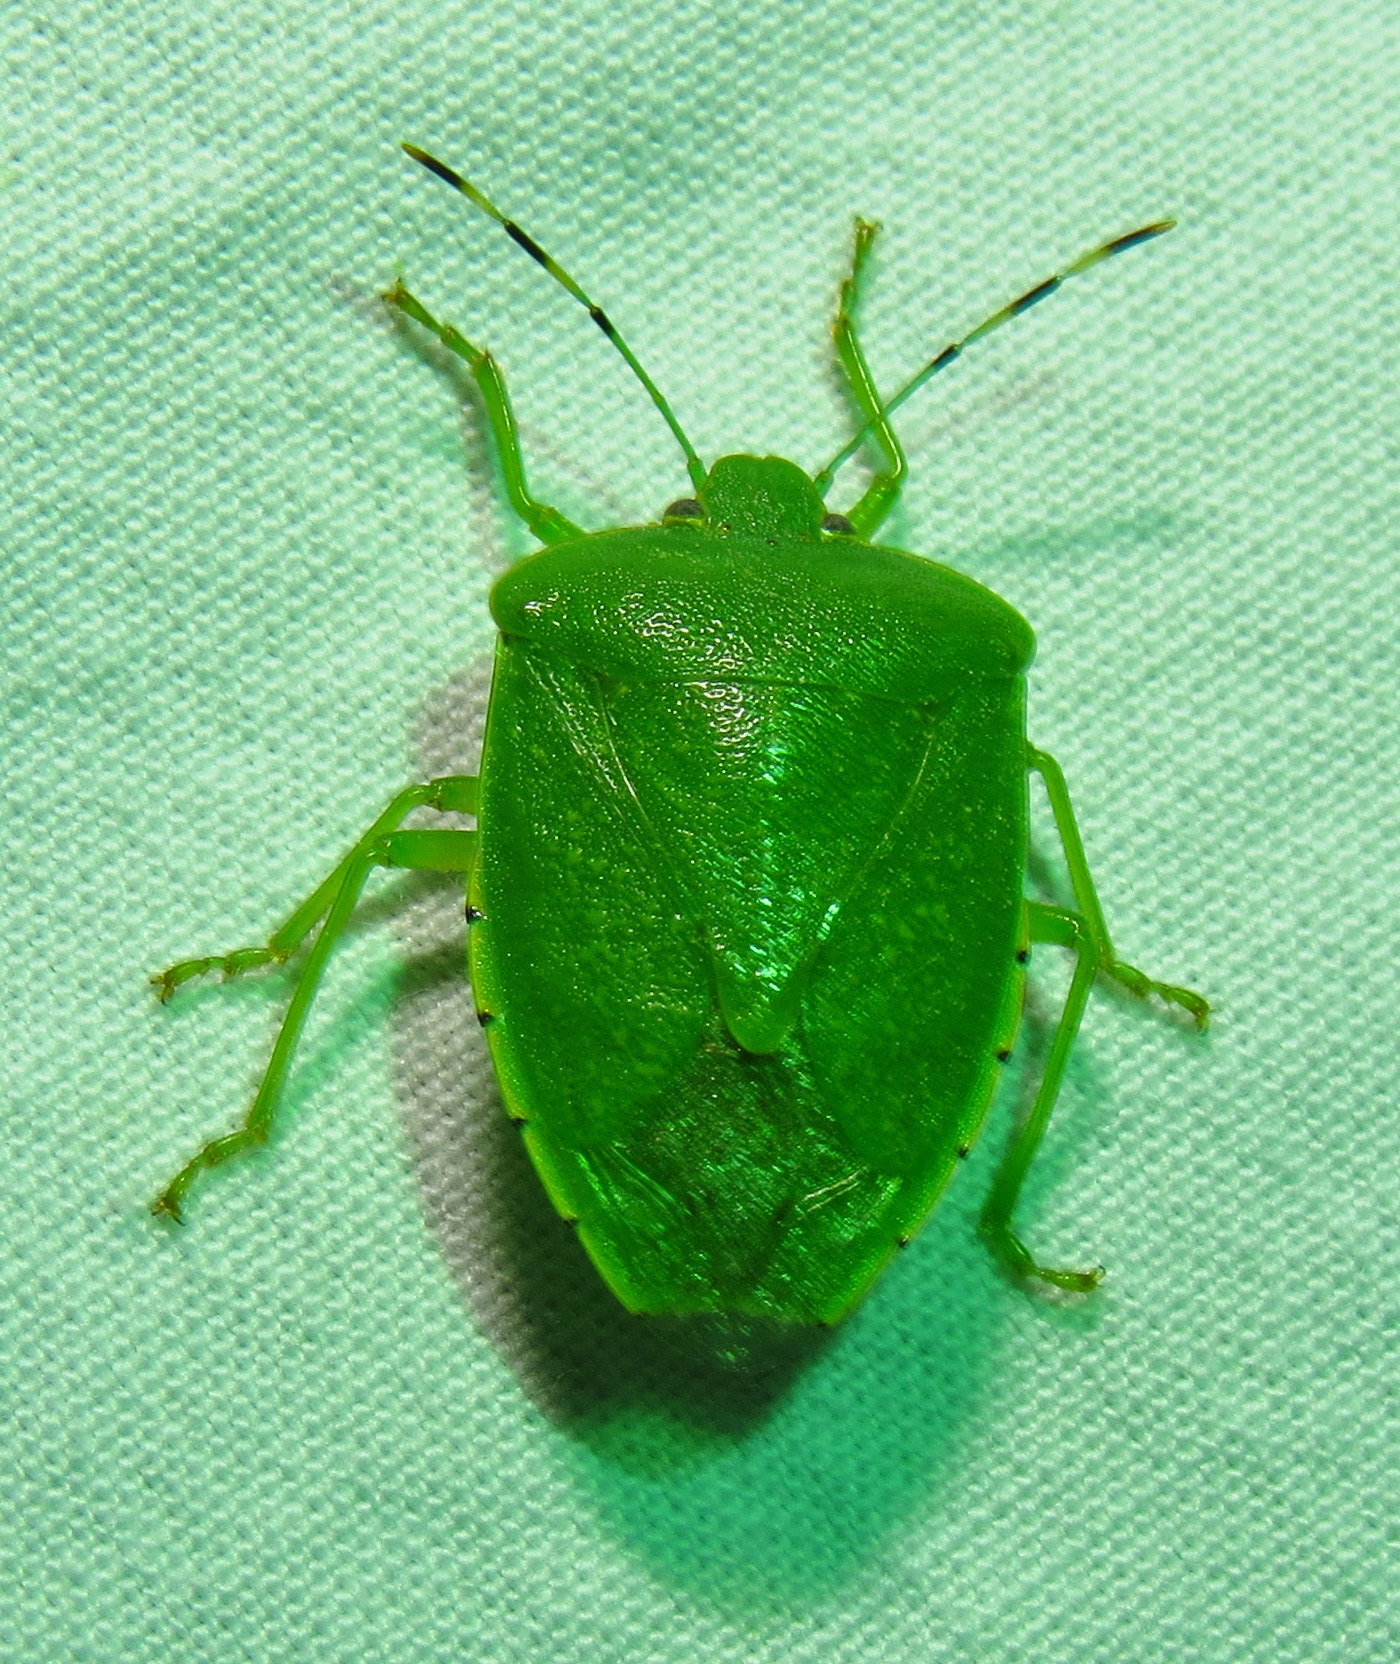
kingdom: Animalia
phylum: Arthropoda
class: Insecta
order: Hemiptera
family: Pentatomidae
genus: Chinavia
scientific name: Chinavia hilaris
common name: Green stink bug
